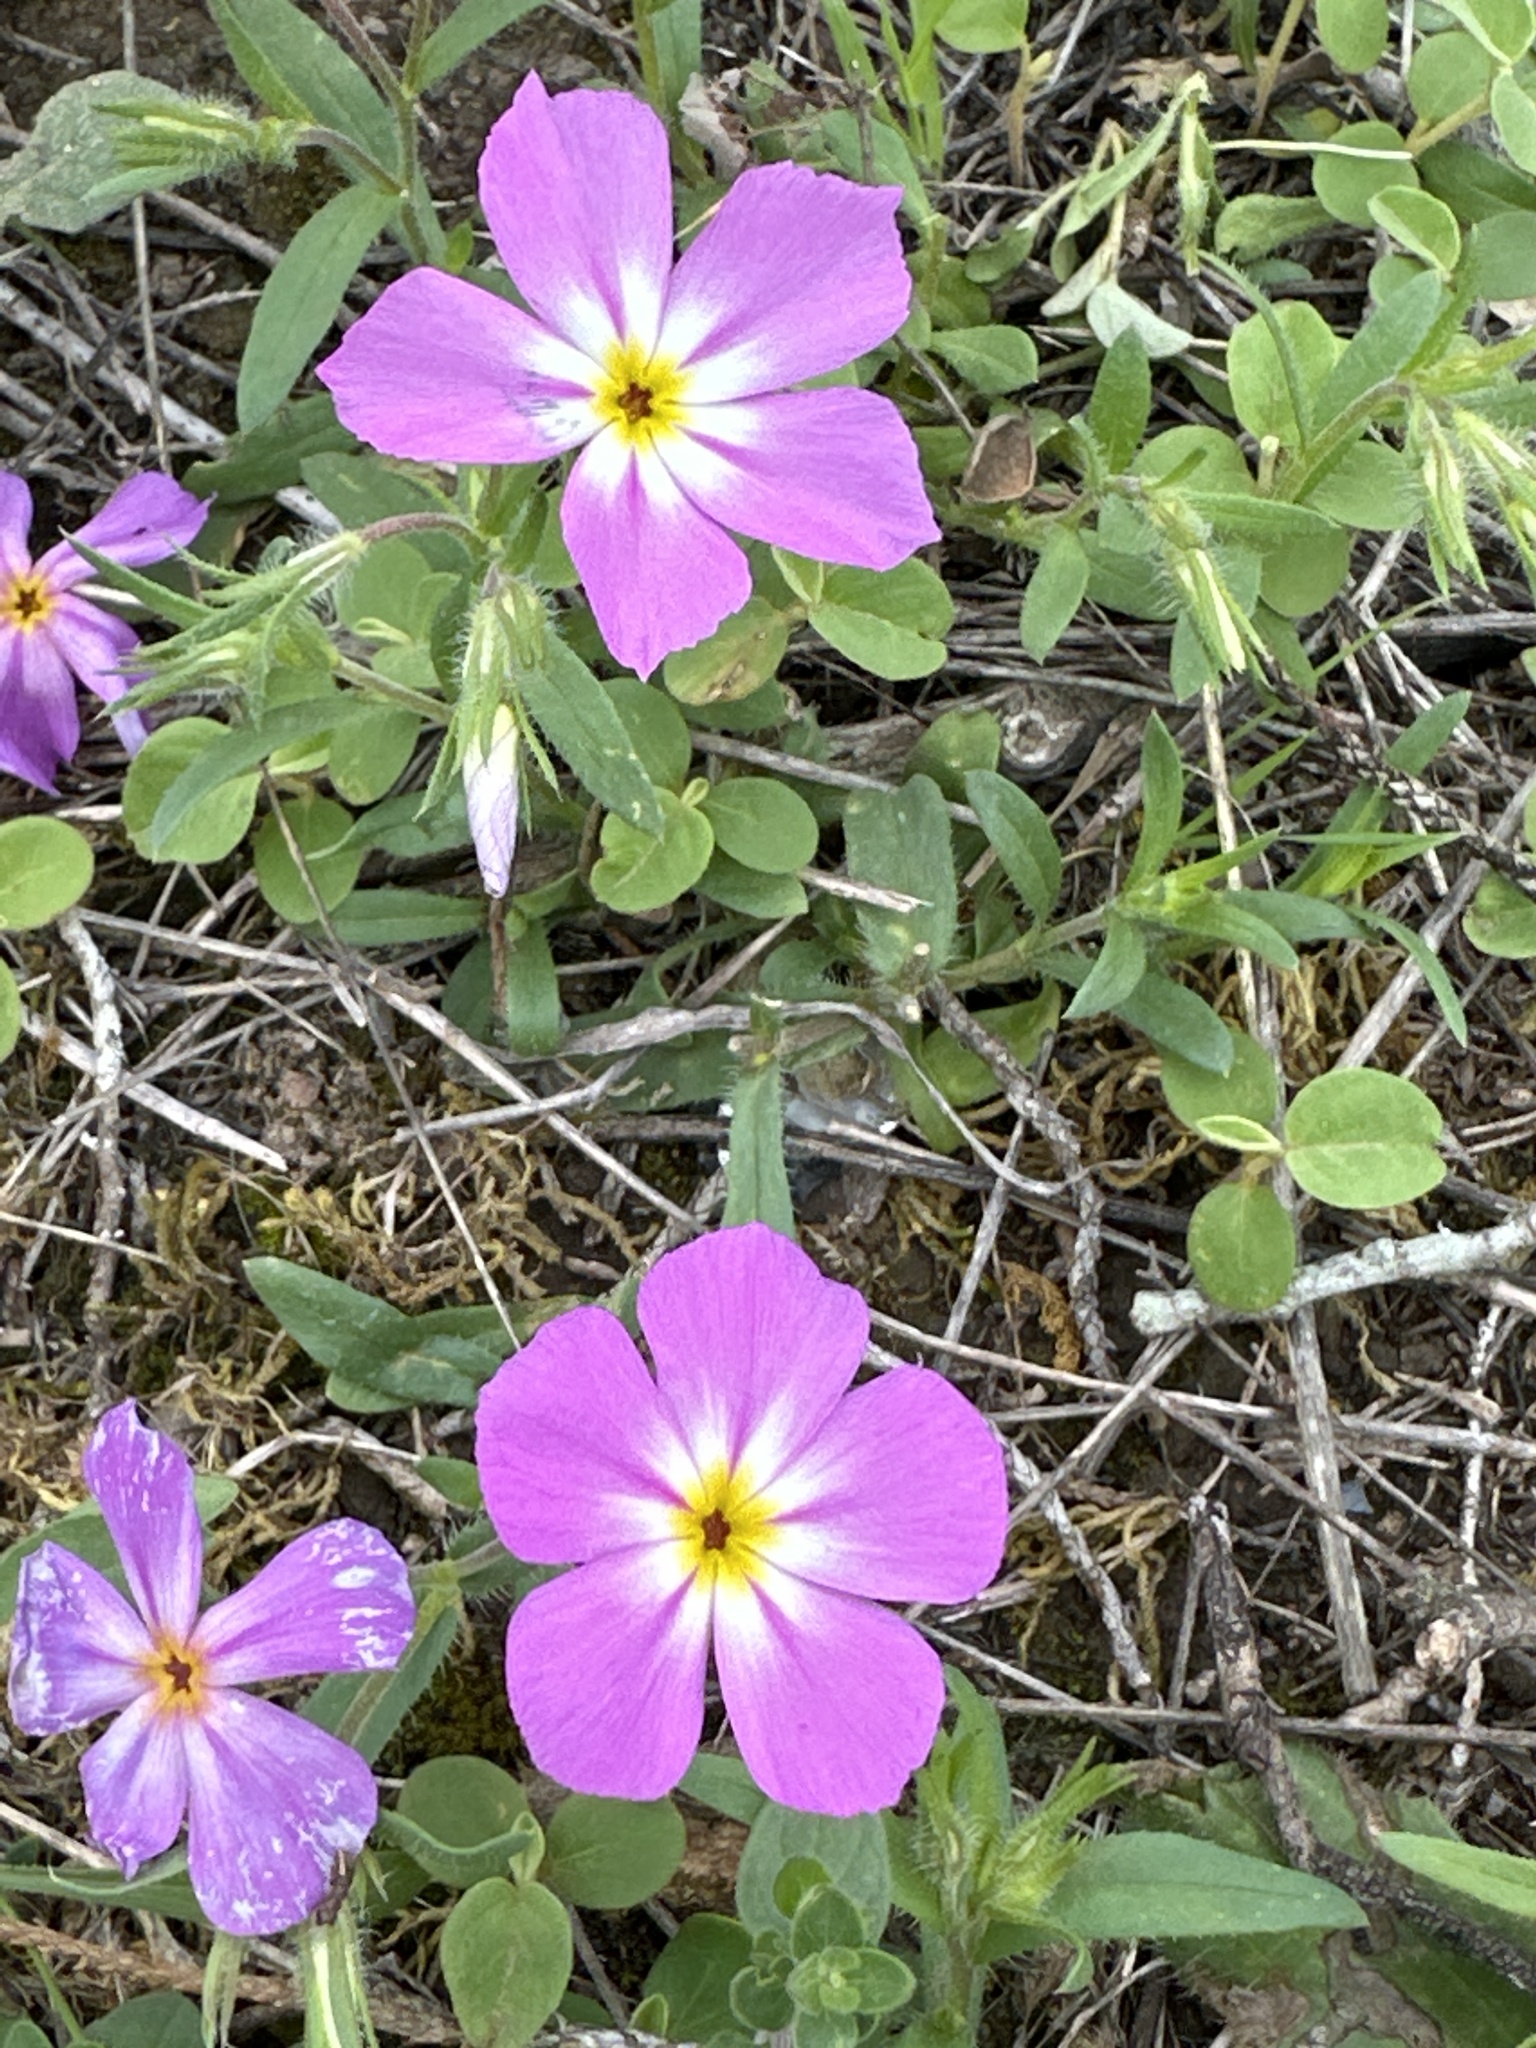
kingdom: Plantae
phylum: Tracheophyta
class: Magnoliopsida
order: Ericales
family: Polemoniaceae
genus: Phlox
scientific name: Phlox roemeriana
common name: Roemer's phlox
